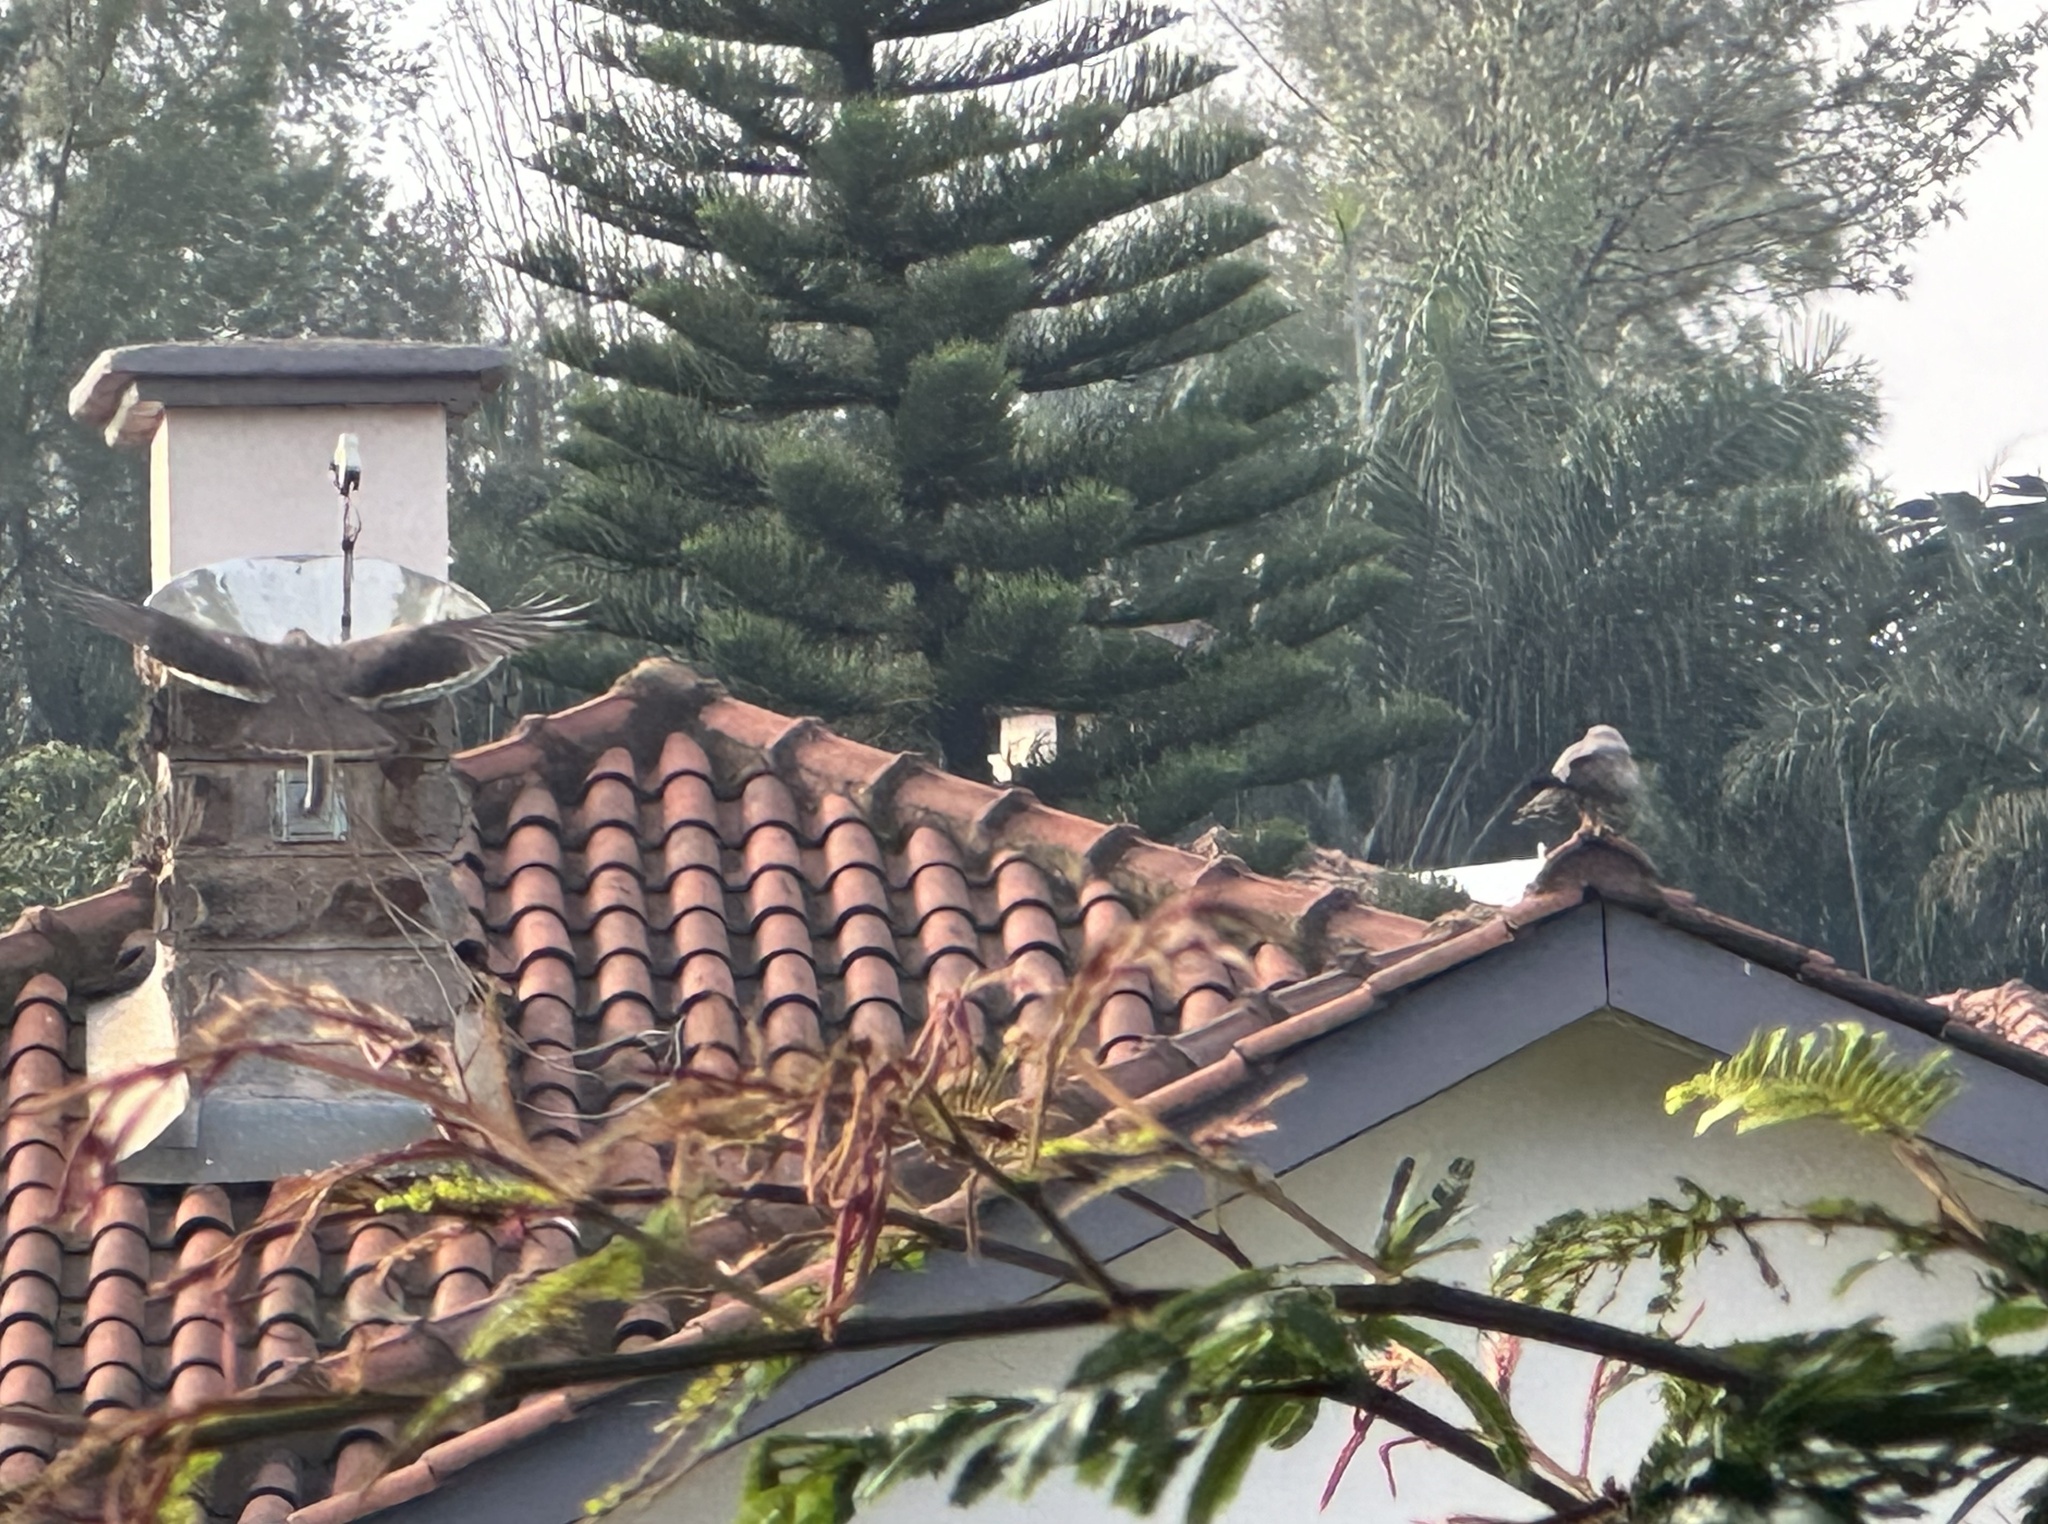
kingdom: Animalia
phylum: Chordata
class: Aves
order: Accipitriformes
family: Accipitridae
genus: Milvus
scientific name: Milvus migrans
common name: Black kite
